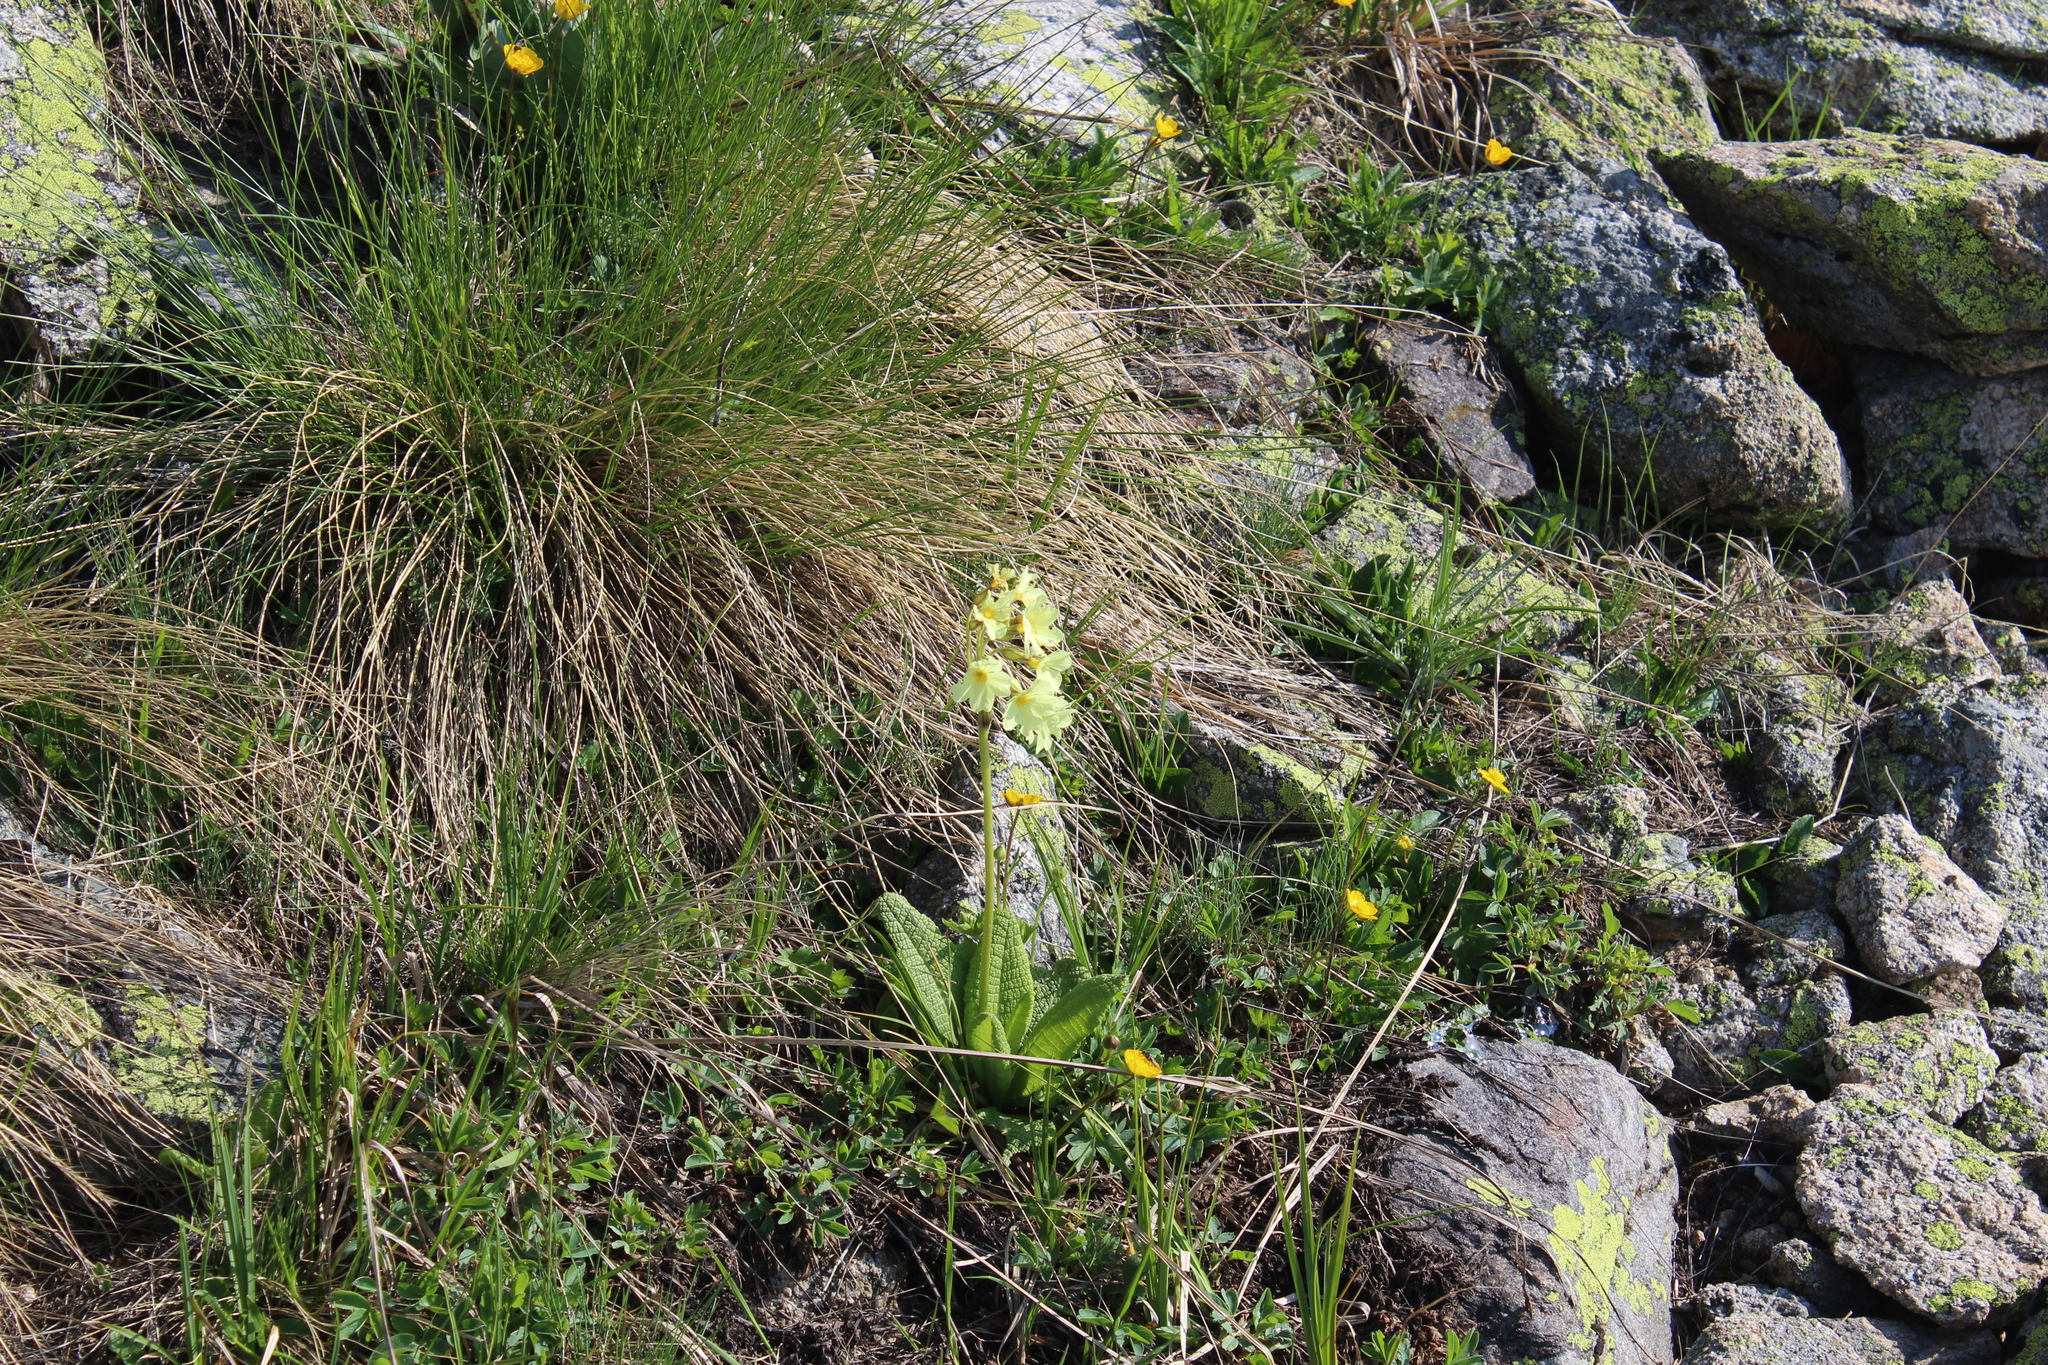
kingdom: Plantae
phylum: Tracheophyta
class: Magnoliopsida
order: Ericales
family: Primulaceae
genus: Primula
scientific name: Primula ruprechtii
